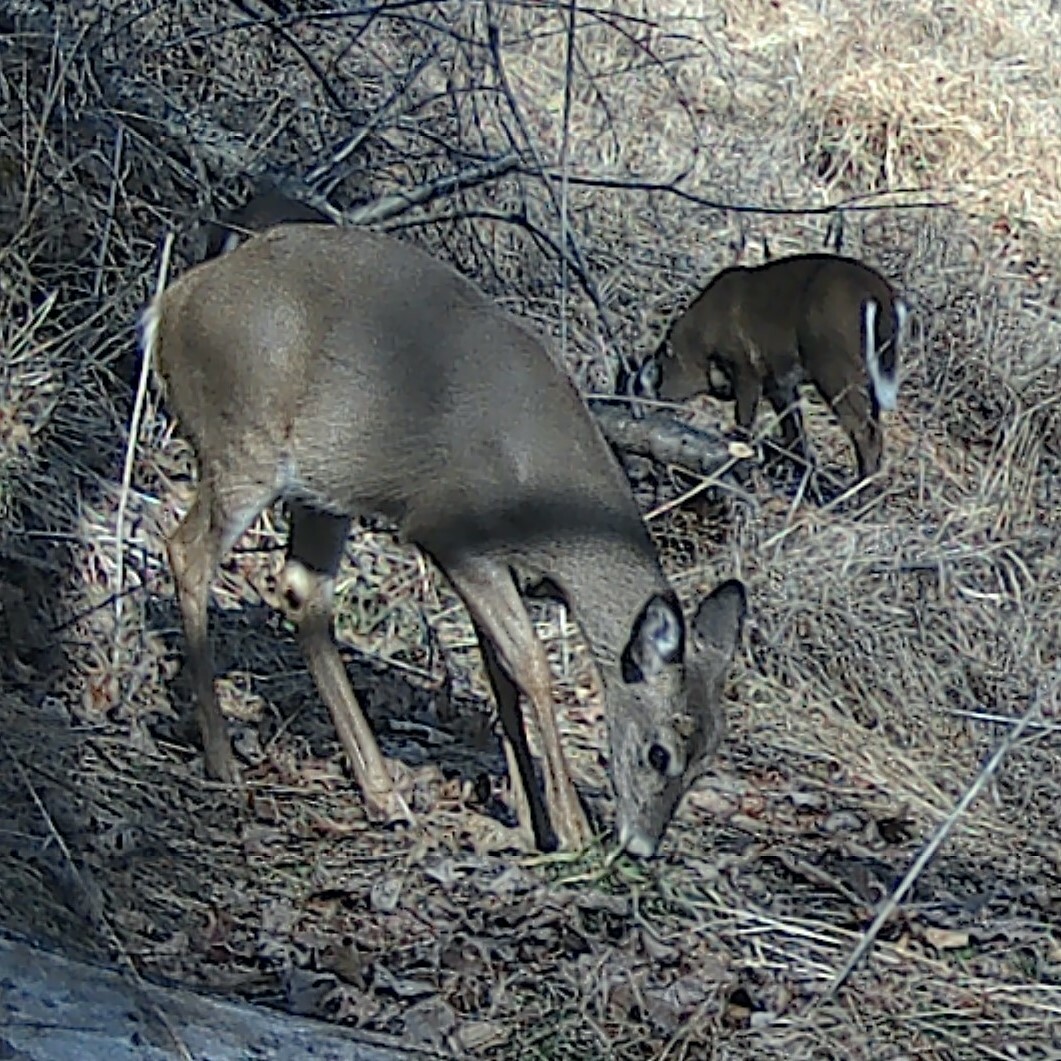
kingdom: Animalia
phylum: Chordata
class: Mammalia
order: Artiodactyla
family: Cervidae
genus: Odocoileus
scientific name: Odocoileus virginianus
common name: White-tailed deer
